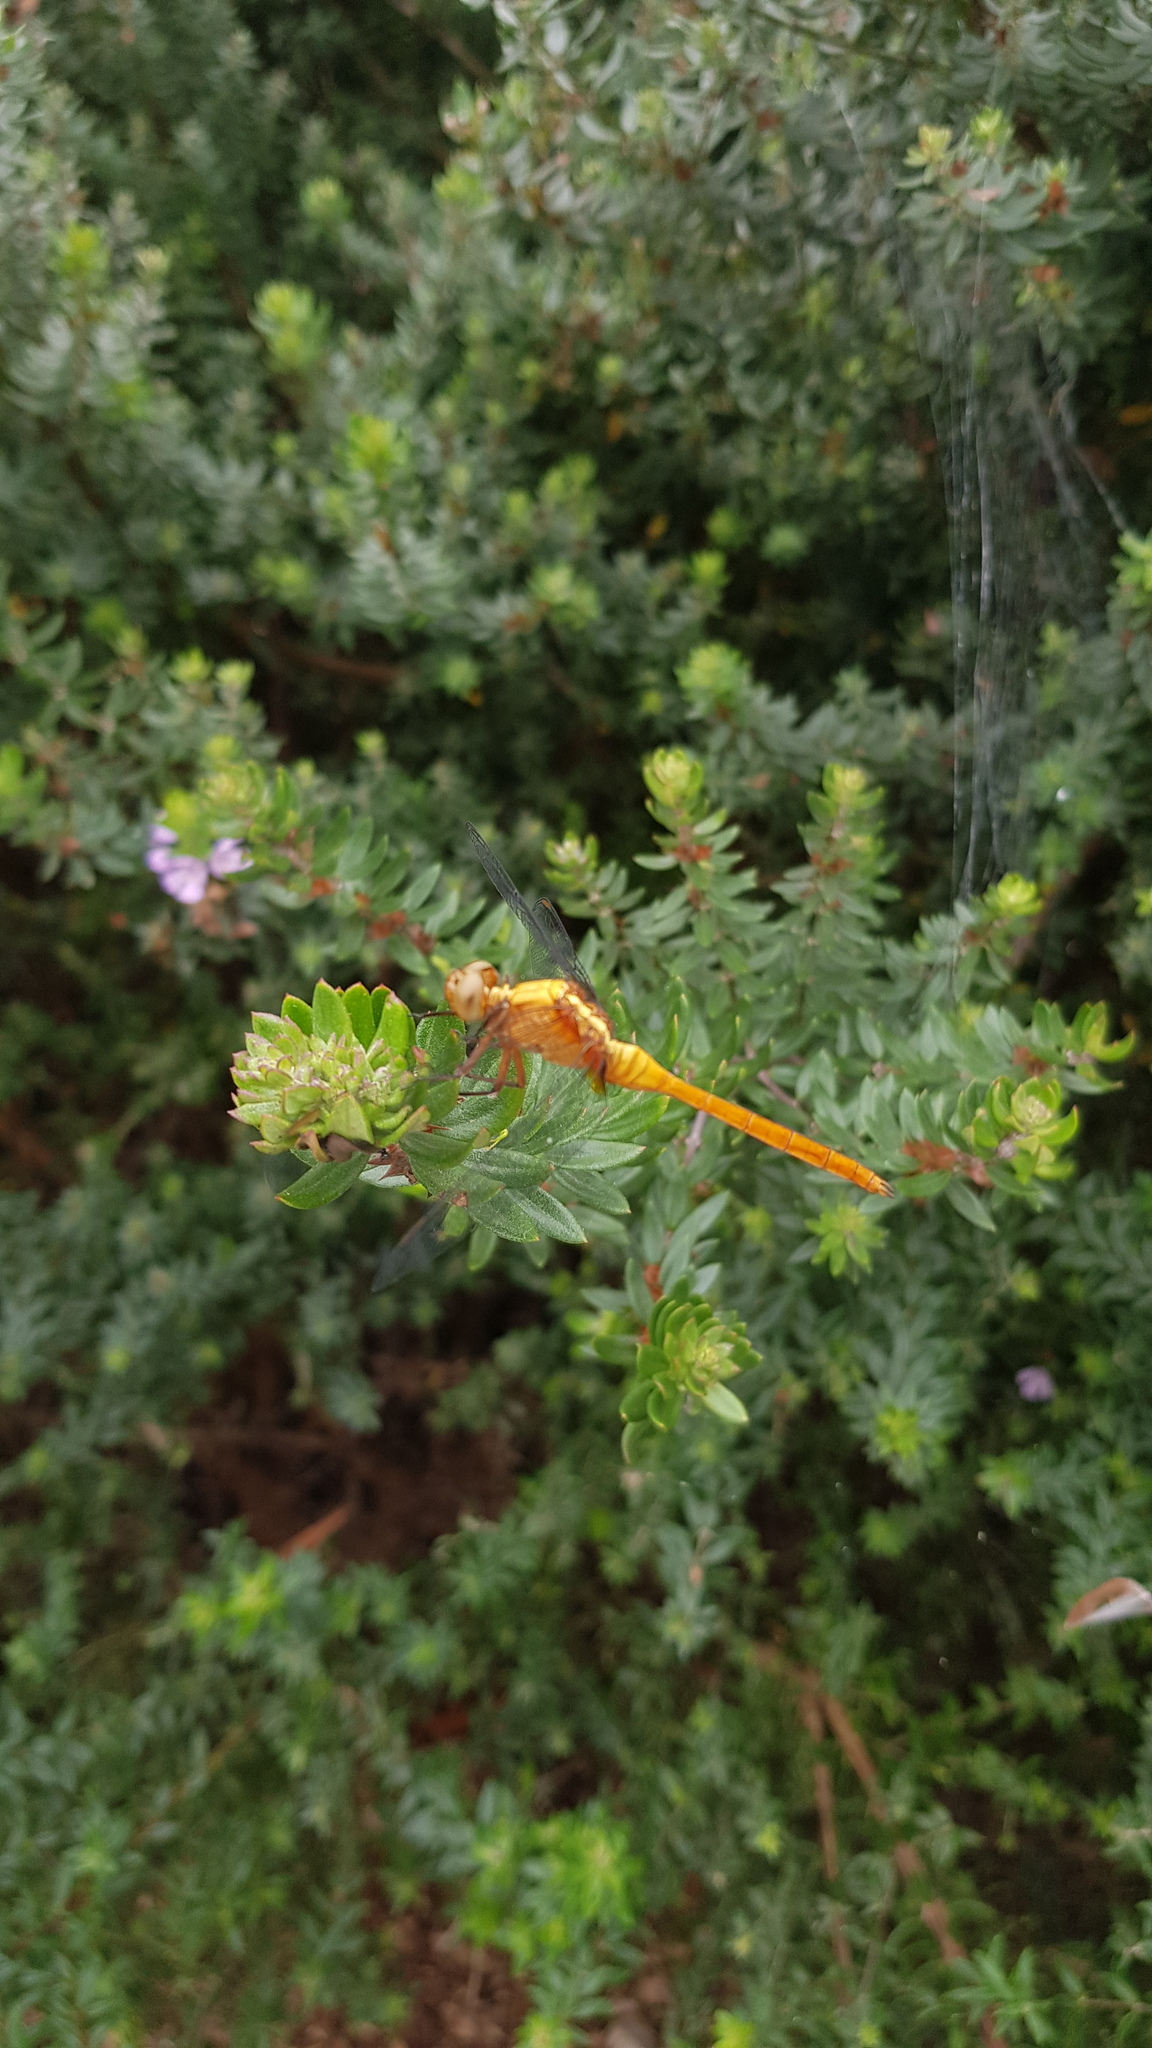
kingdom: Animalia
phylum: Arthropoda
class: Insecta
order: Odonata
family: Libellulidae
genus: Orthetrum
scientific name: Orthetrum villosovittatum
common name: Firery skimmer
